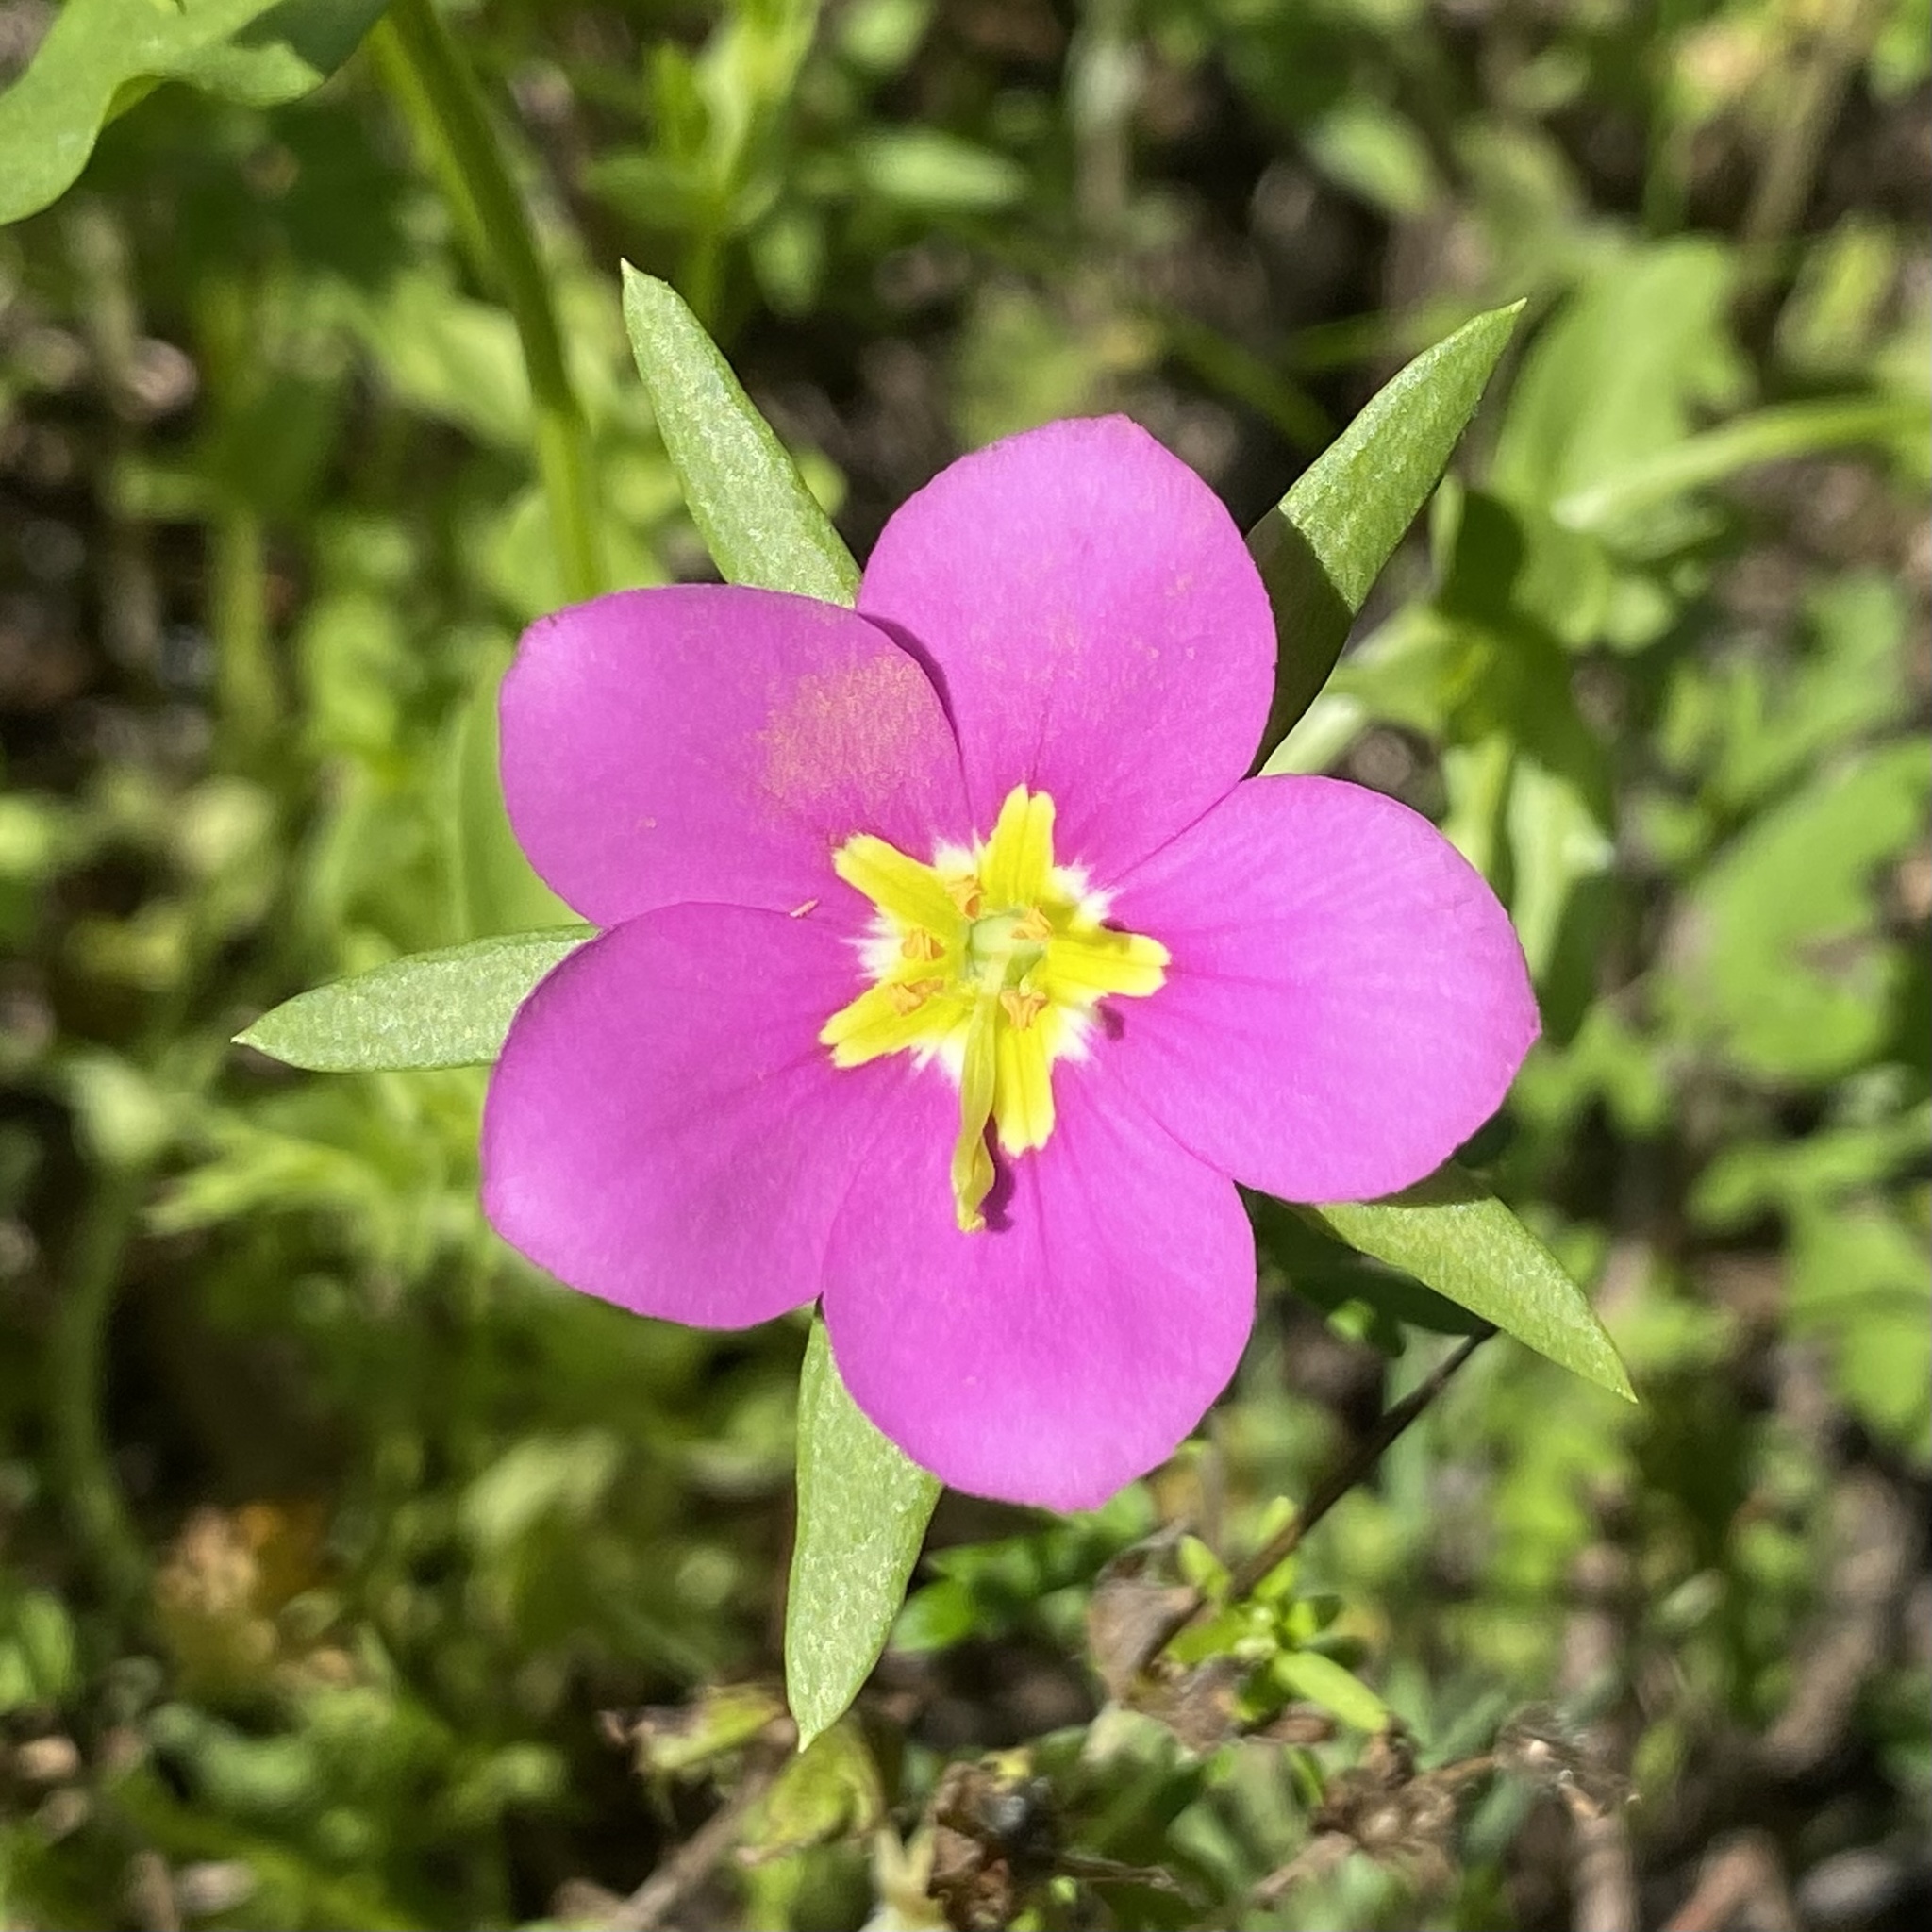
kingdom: Plantae
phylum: Tracheophyta
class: Magnoliopsida
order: Gentianales
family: Gentianaceae
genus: Sabatia
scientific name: Sabatia campestris
